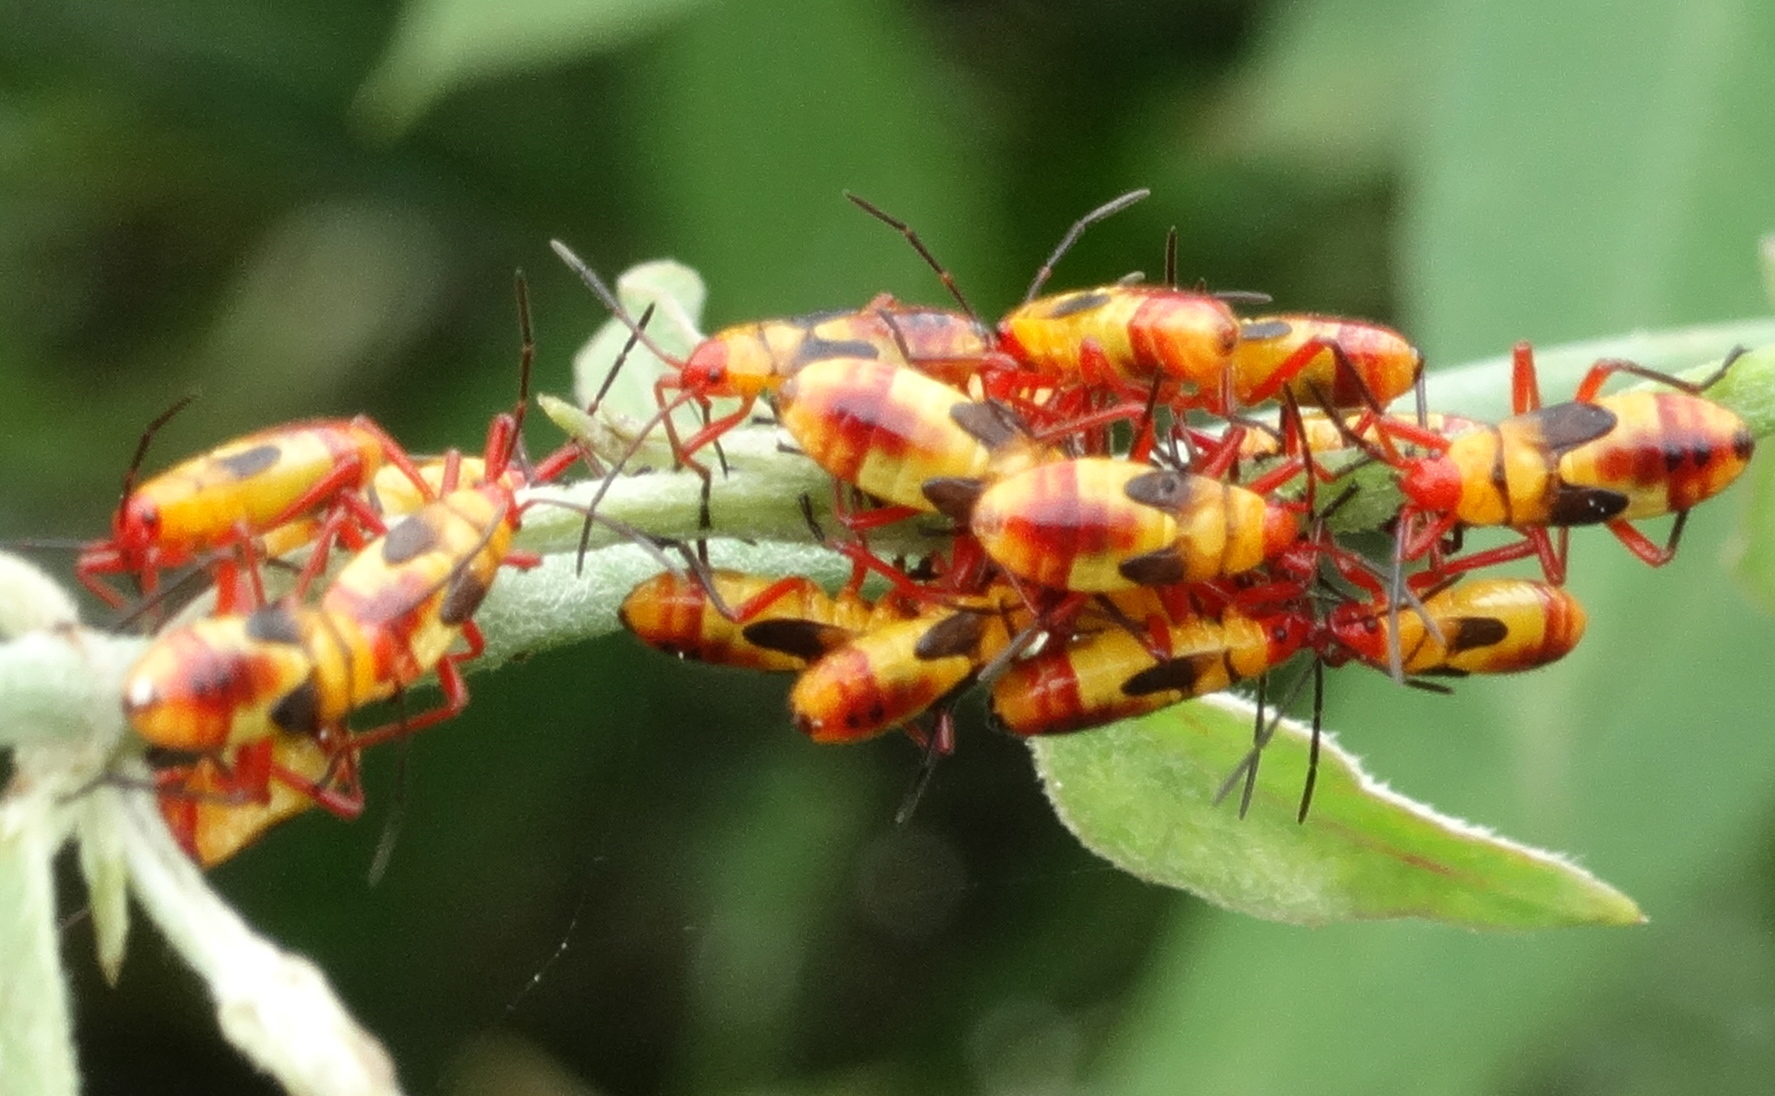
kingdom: Animalia
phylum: Arthropoda
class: Insecta
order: Hemiptera
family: Lygaeidae
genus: Oncopeltus
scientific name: Oncopeltus guttaloides
